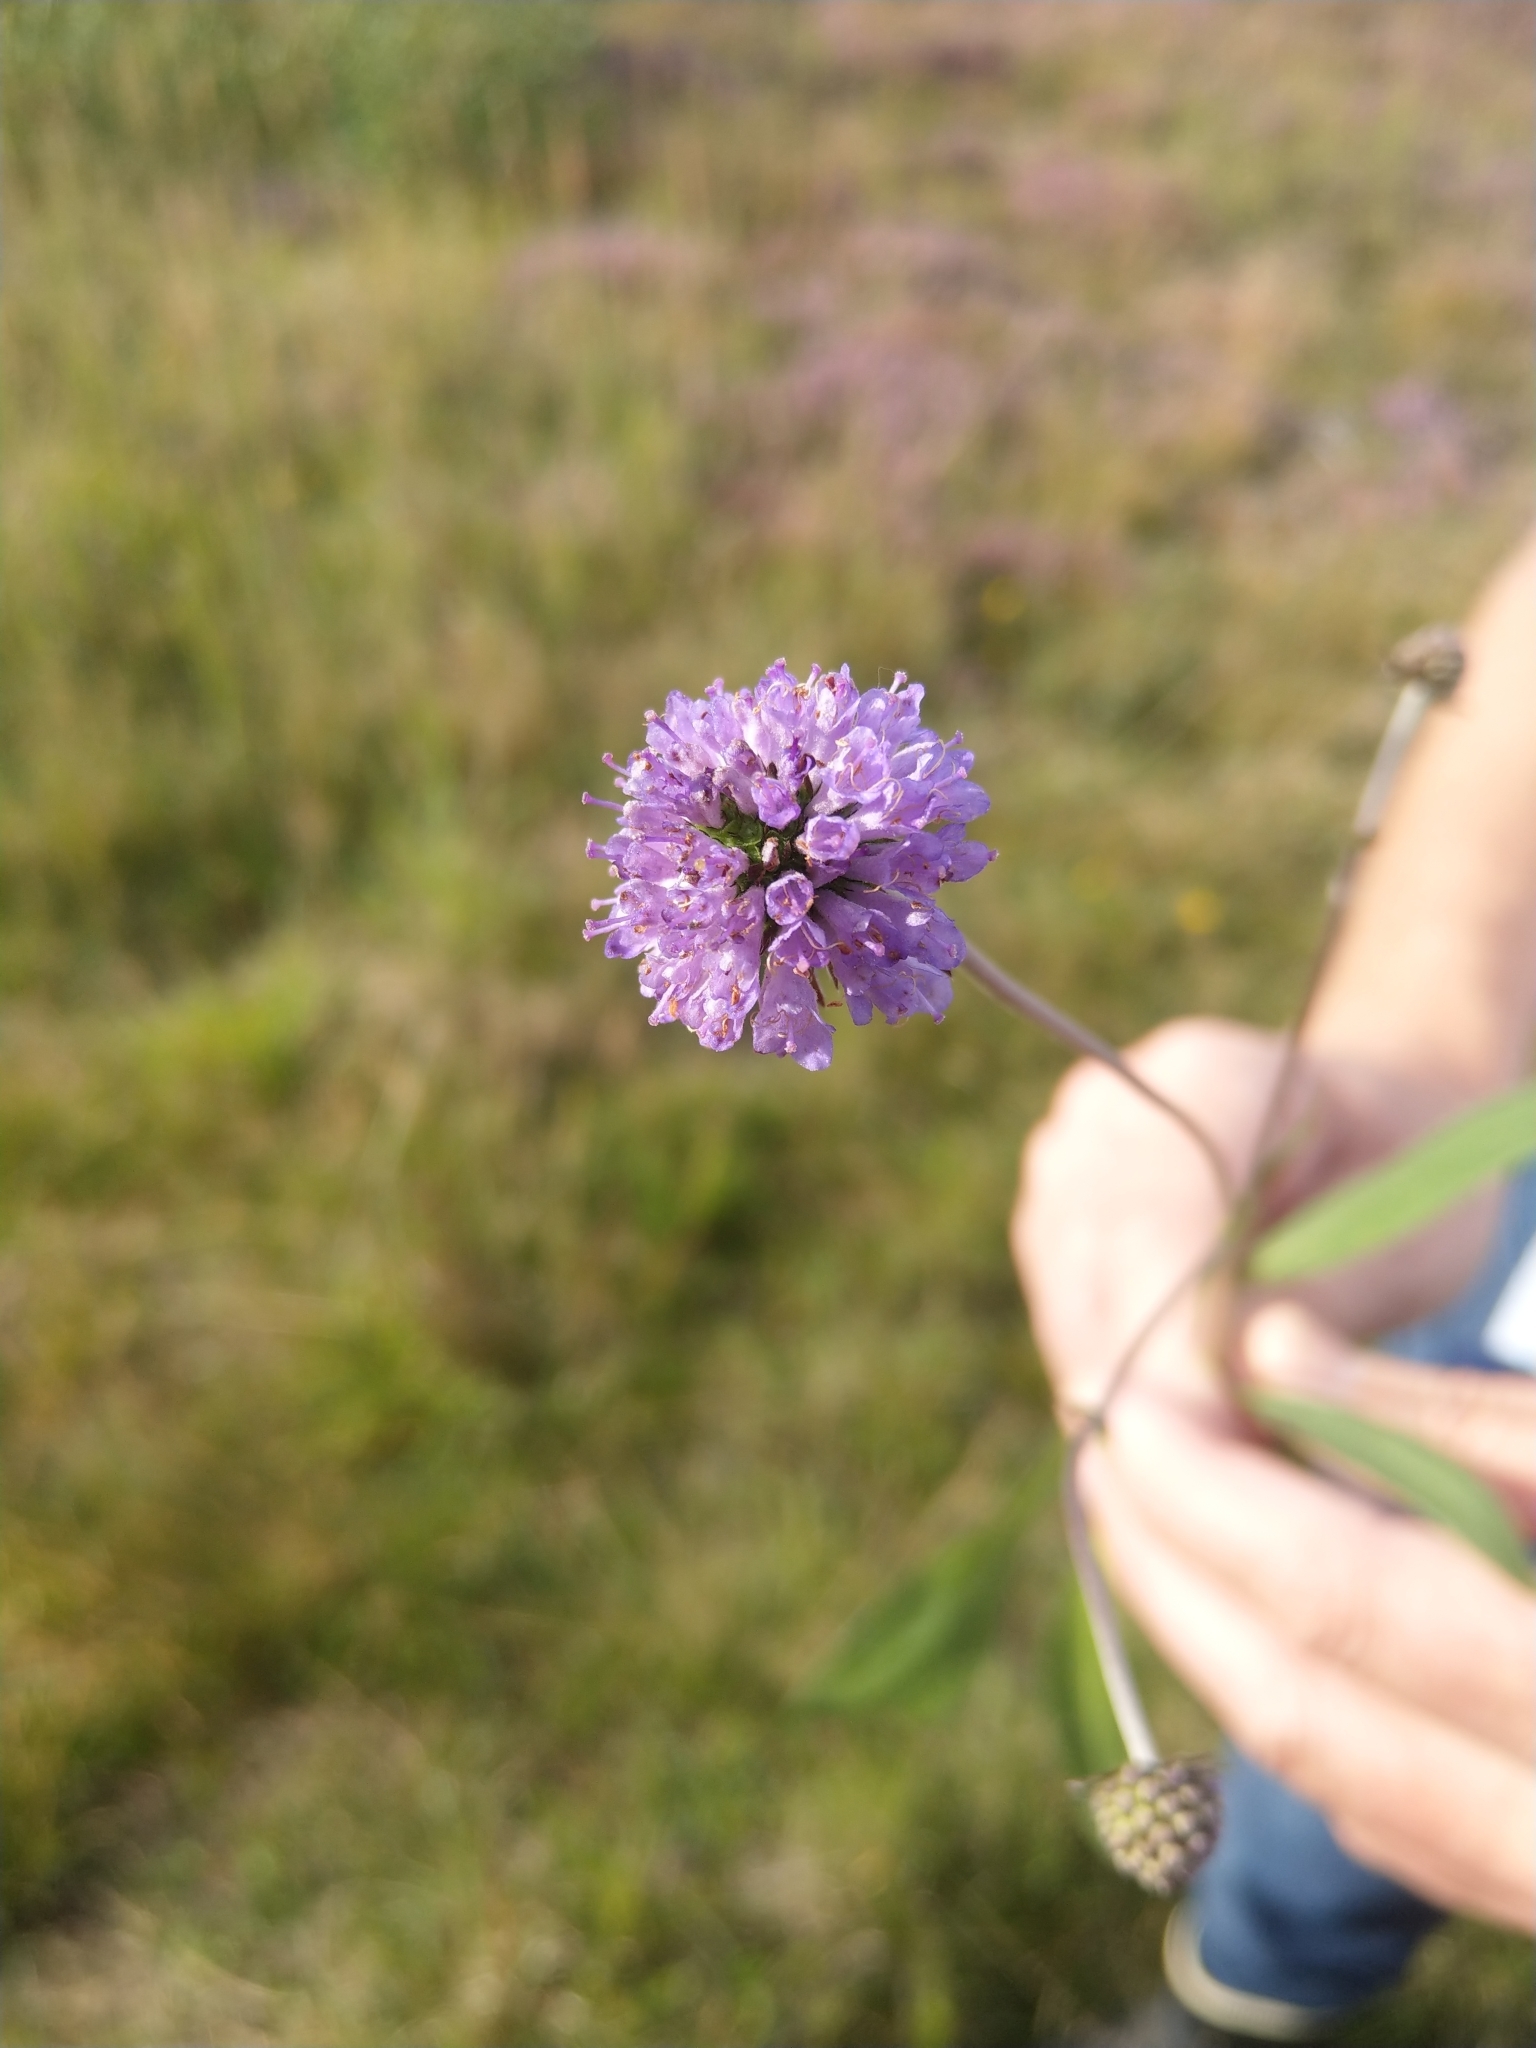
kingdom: Plantae
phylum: Tracheophyta
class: Magnoliopsida
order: Dipsacales
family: Caprifoliaceae
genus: Succisa
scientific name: Succisa pratensis
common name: Devil's-bit
